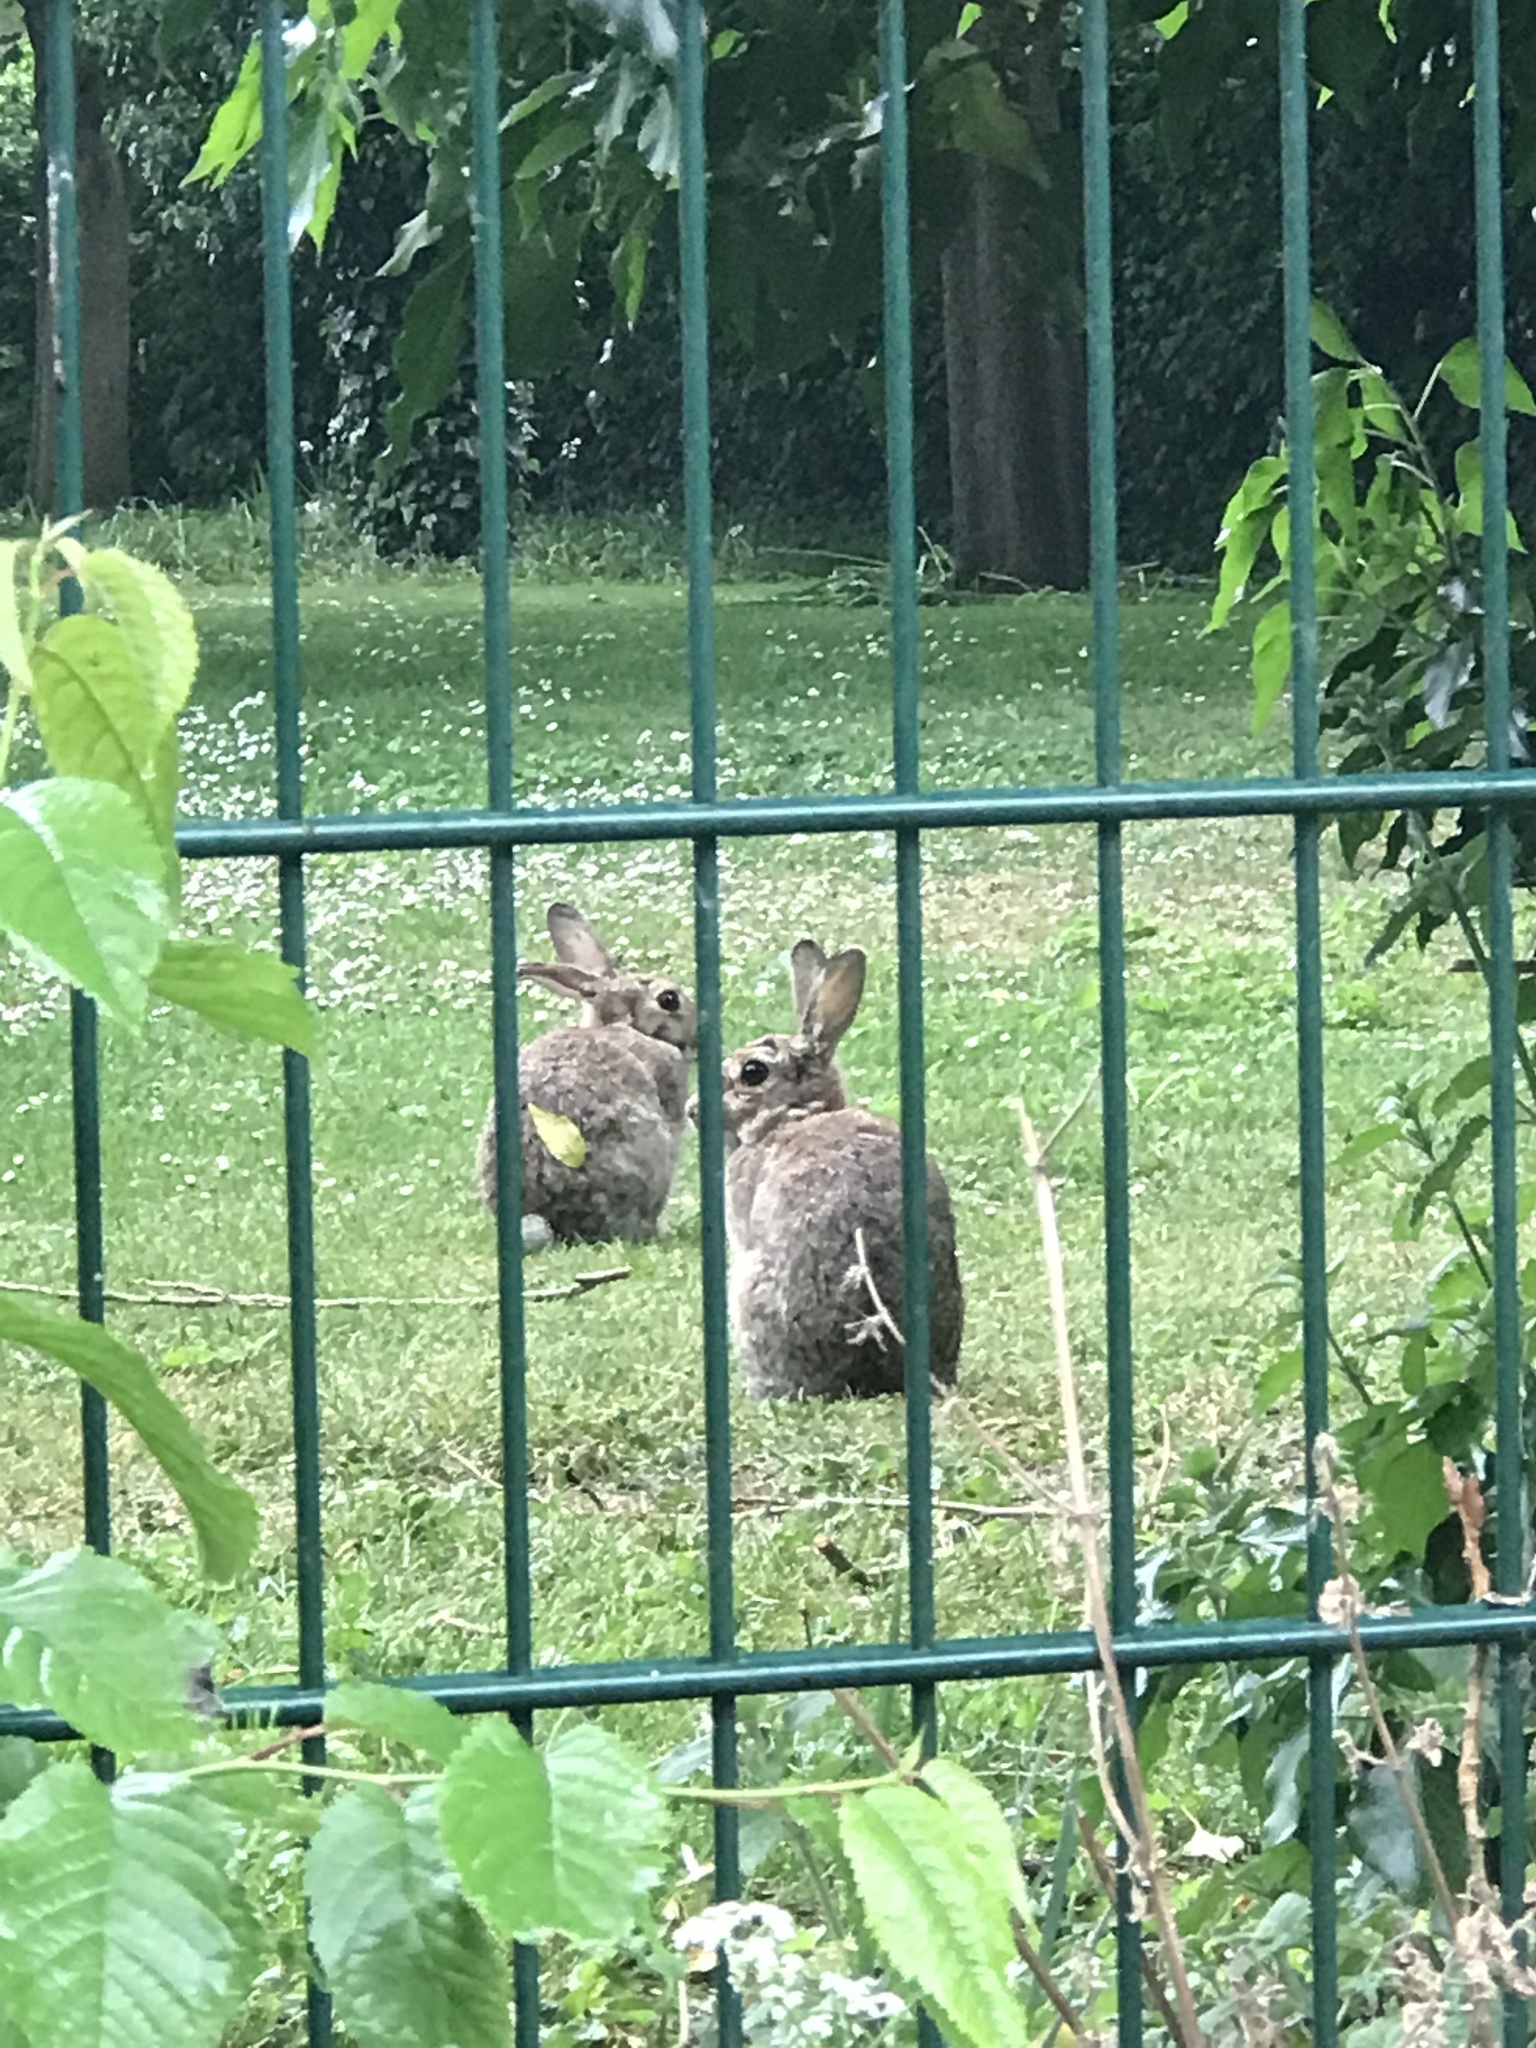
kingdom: Animalia
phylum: Chordata
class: Mammalia
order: Lagomorpha
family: Leporidae
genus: Oryctolagus
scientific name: Oryctolagus cuniculus
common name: European rabbit
